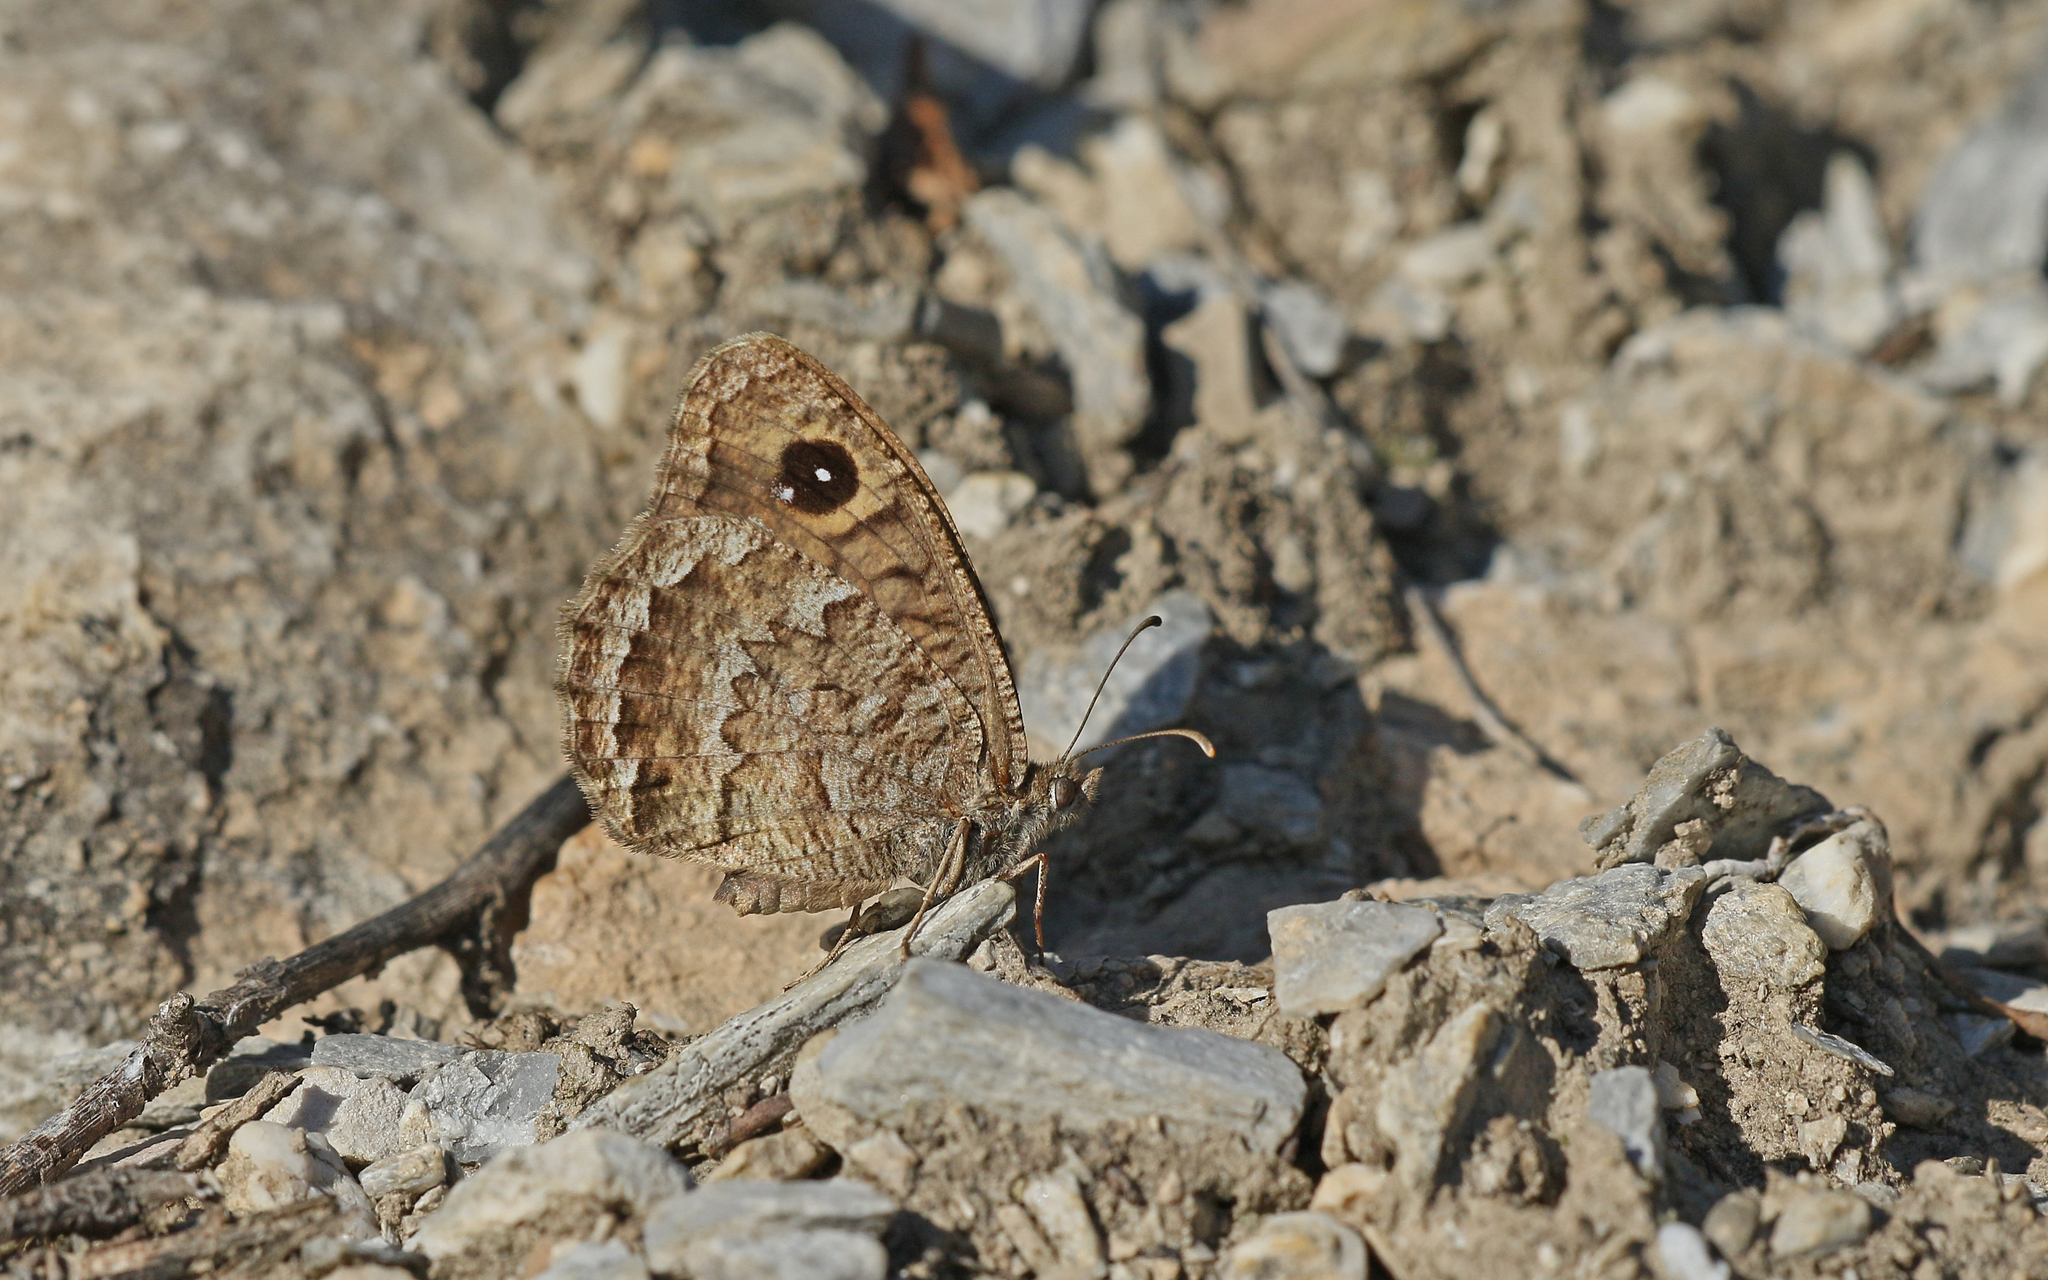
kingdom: Animalia
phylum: Arthropoda
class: Insecta
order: Lepidoptera
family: Nymphalidae
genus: Satyrus
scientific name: Satyrus actaea
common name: Black satyr
